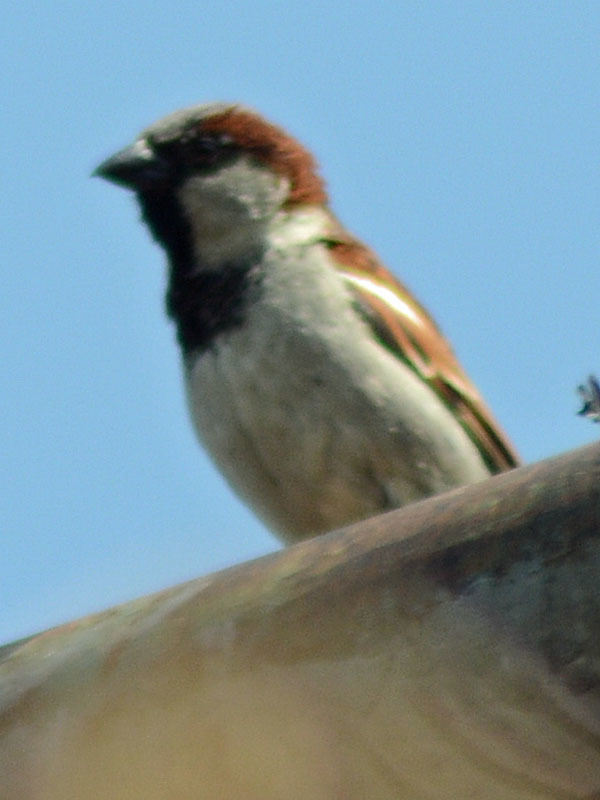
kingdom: Animalia
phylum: Chordata
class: Aves
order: Passeriformes
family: Passeridae
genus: Passer
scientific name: Passer domesticus
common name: House sparrow
